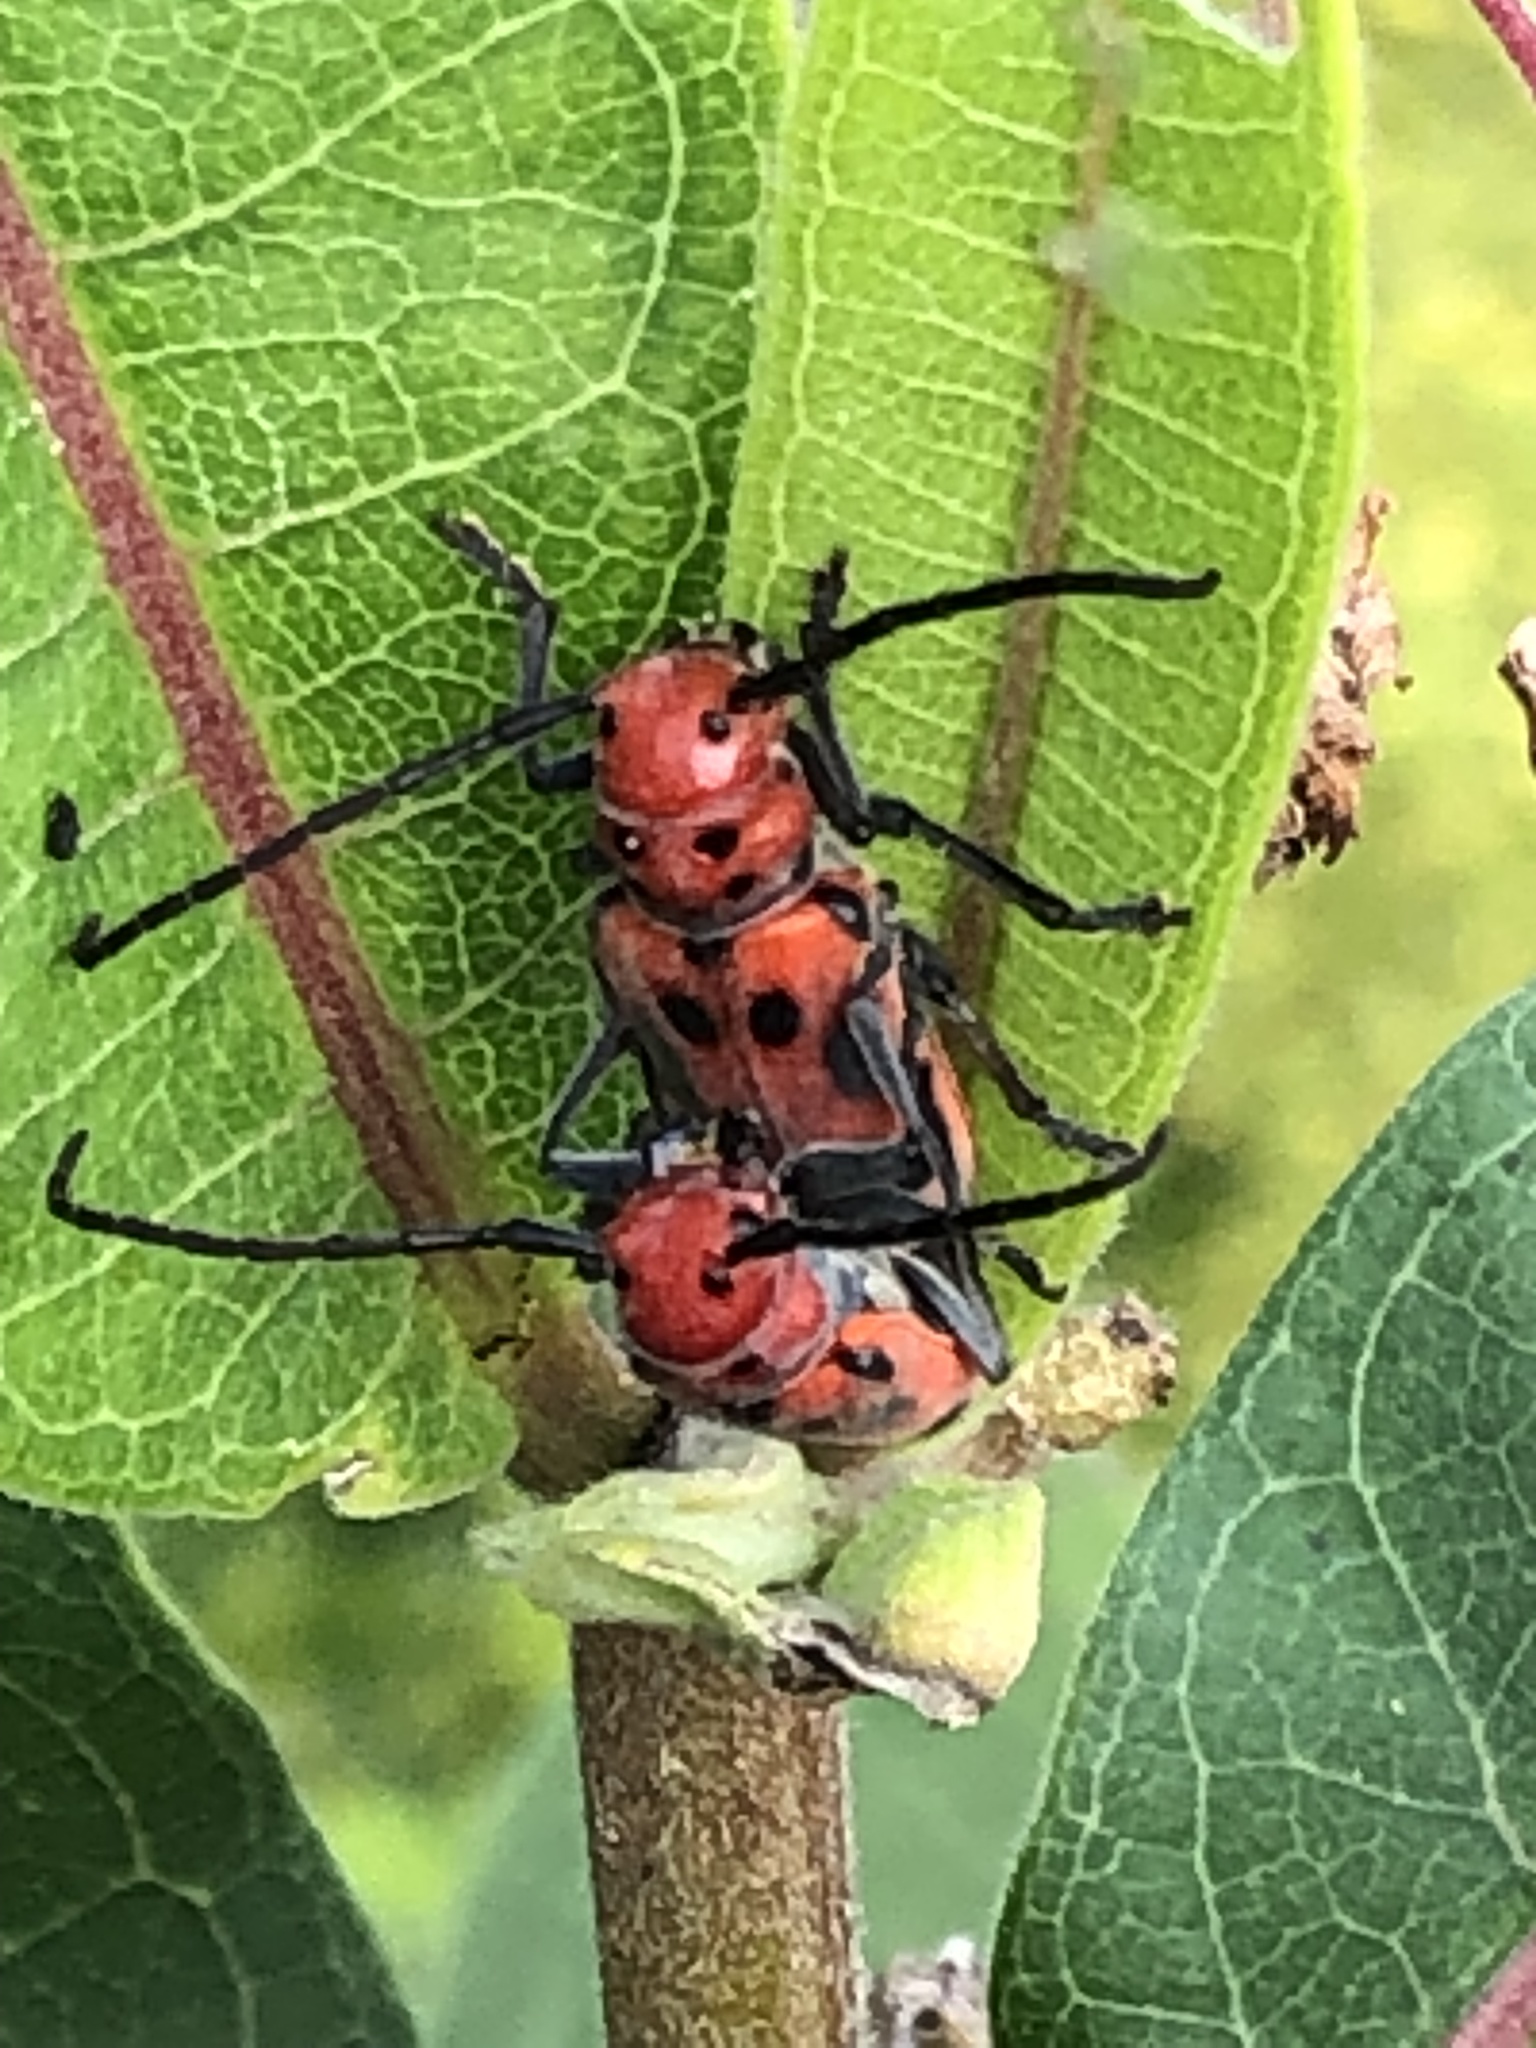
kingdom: Animalia
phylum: Arthropoda
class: Insecta
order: Coleoptera
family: Cerambycidae
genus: Tetraopes
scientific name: Tetraopes tetrophthalmus
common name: Red milkweed beetle
